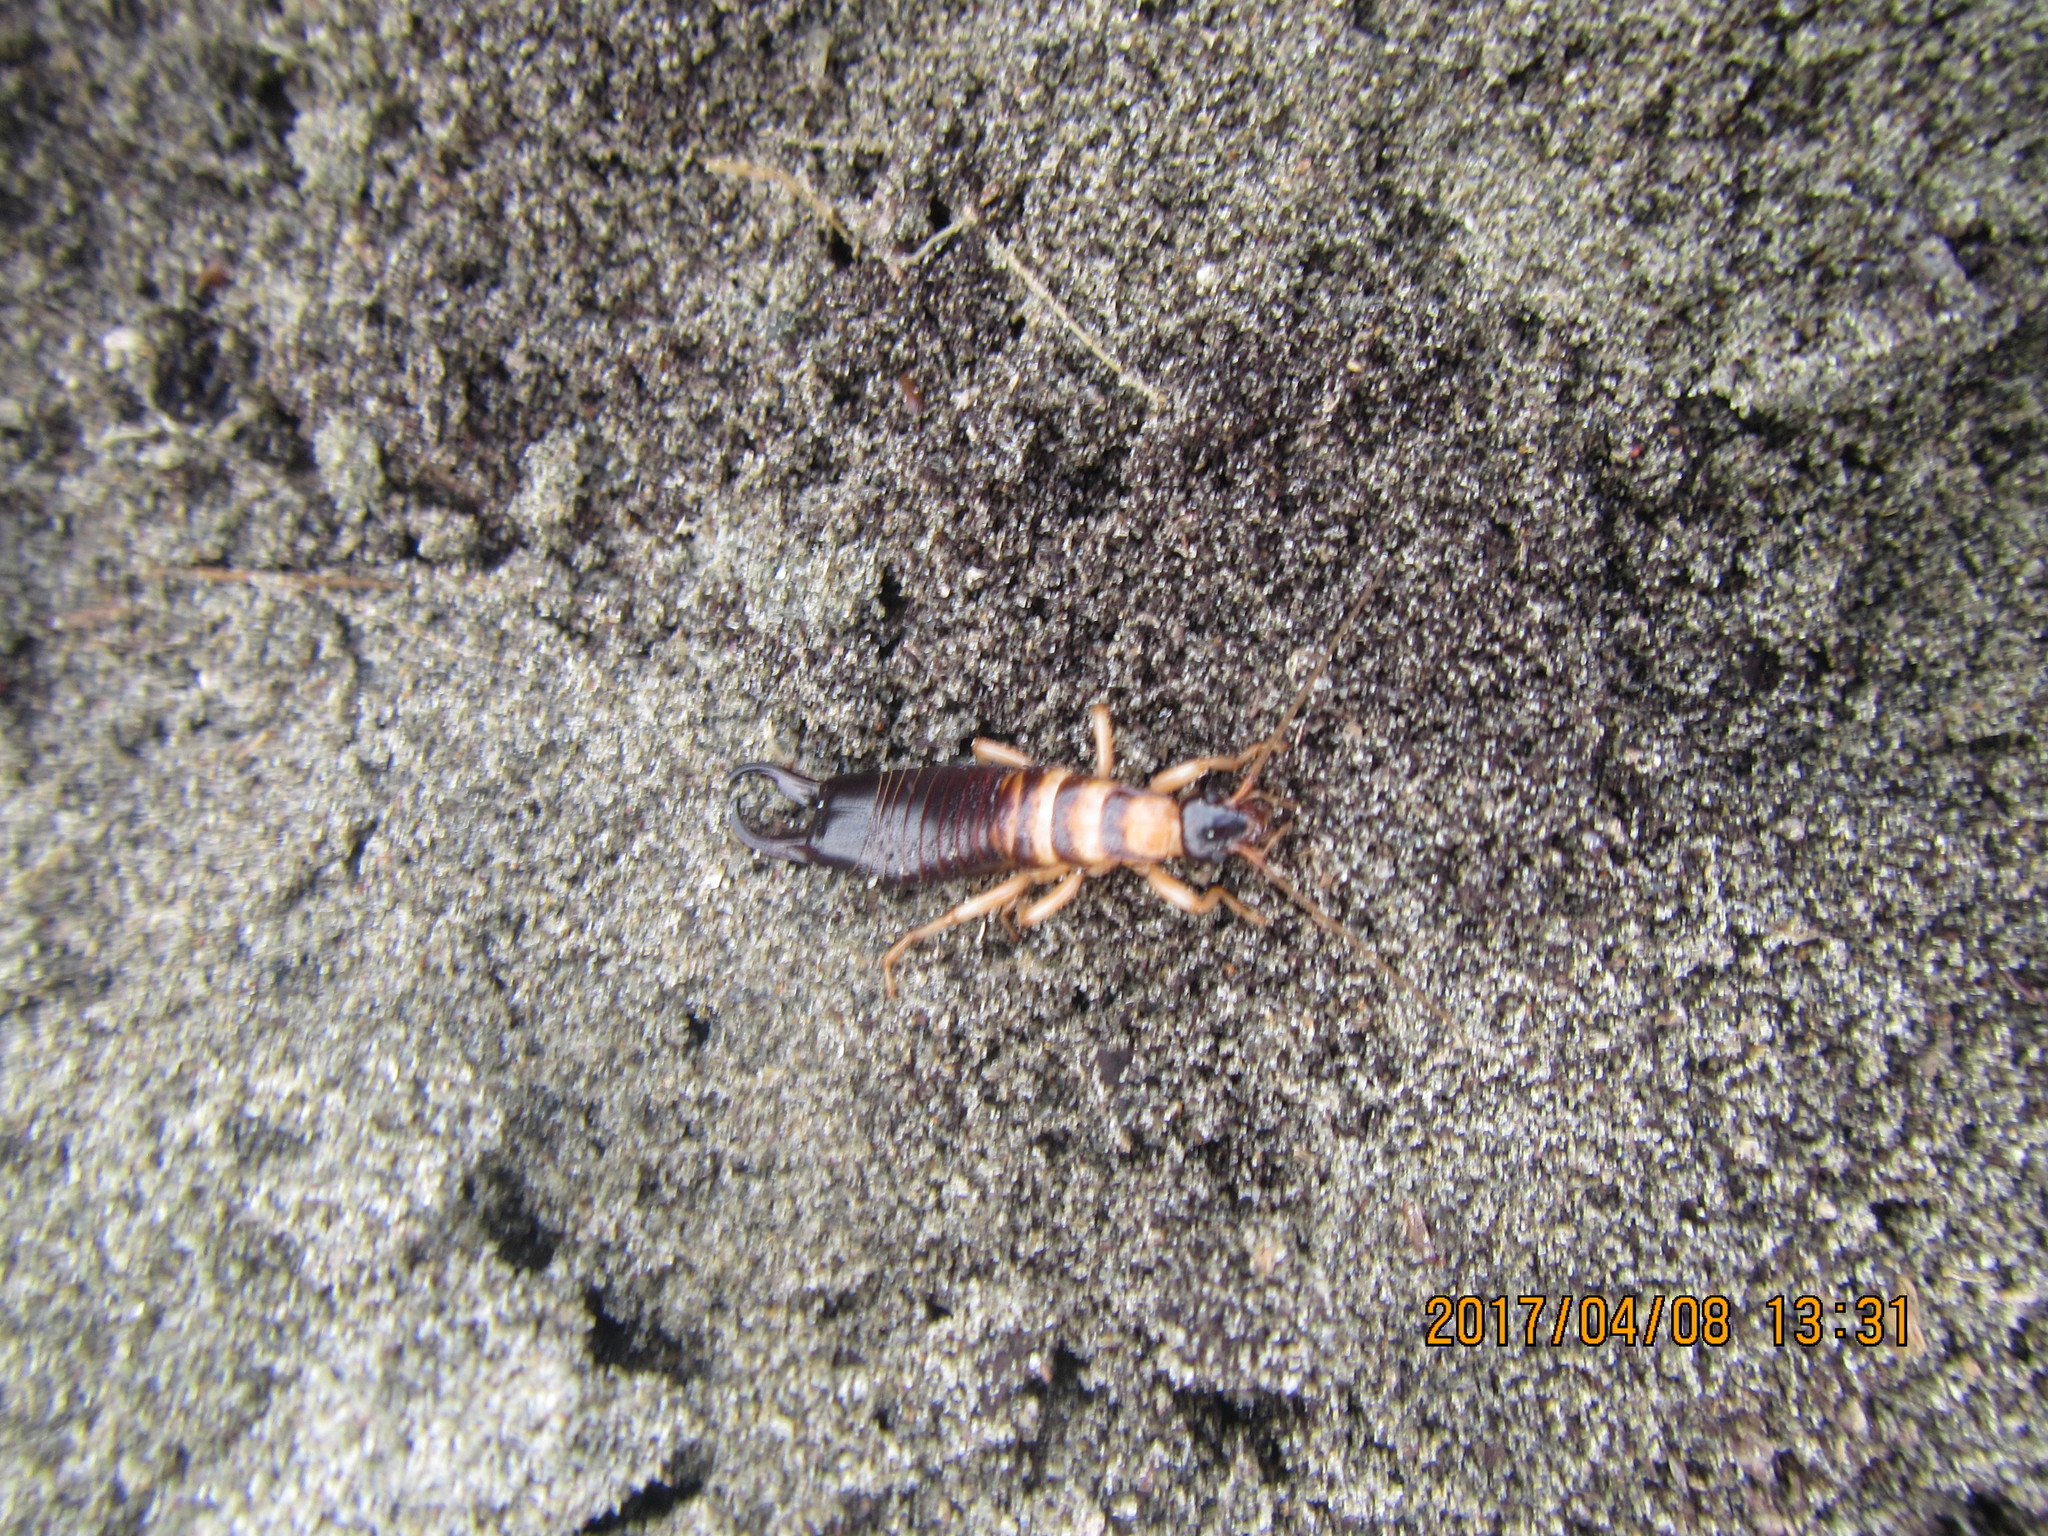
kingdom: Animalia
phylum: Arthropoda
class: Insecta
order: Dermaptera
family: Anisolabididae
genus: Anisolabis
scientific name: Anisolabis littorea
